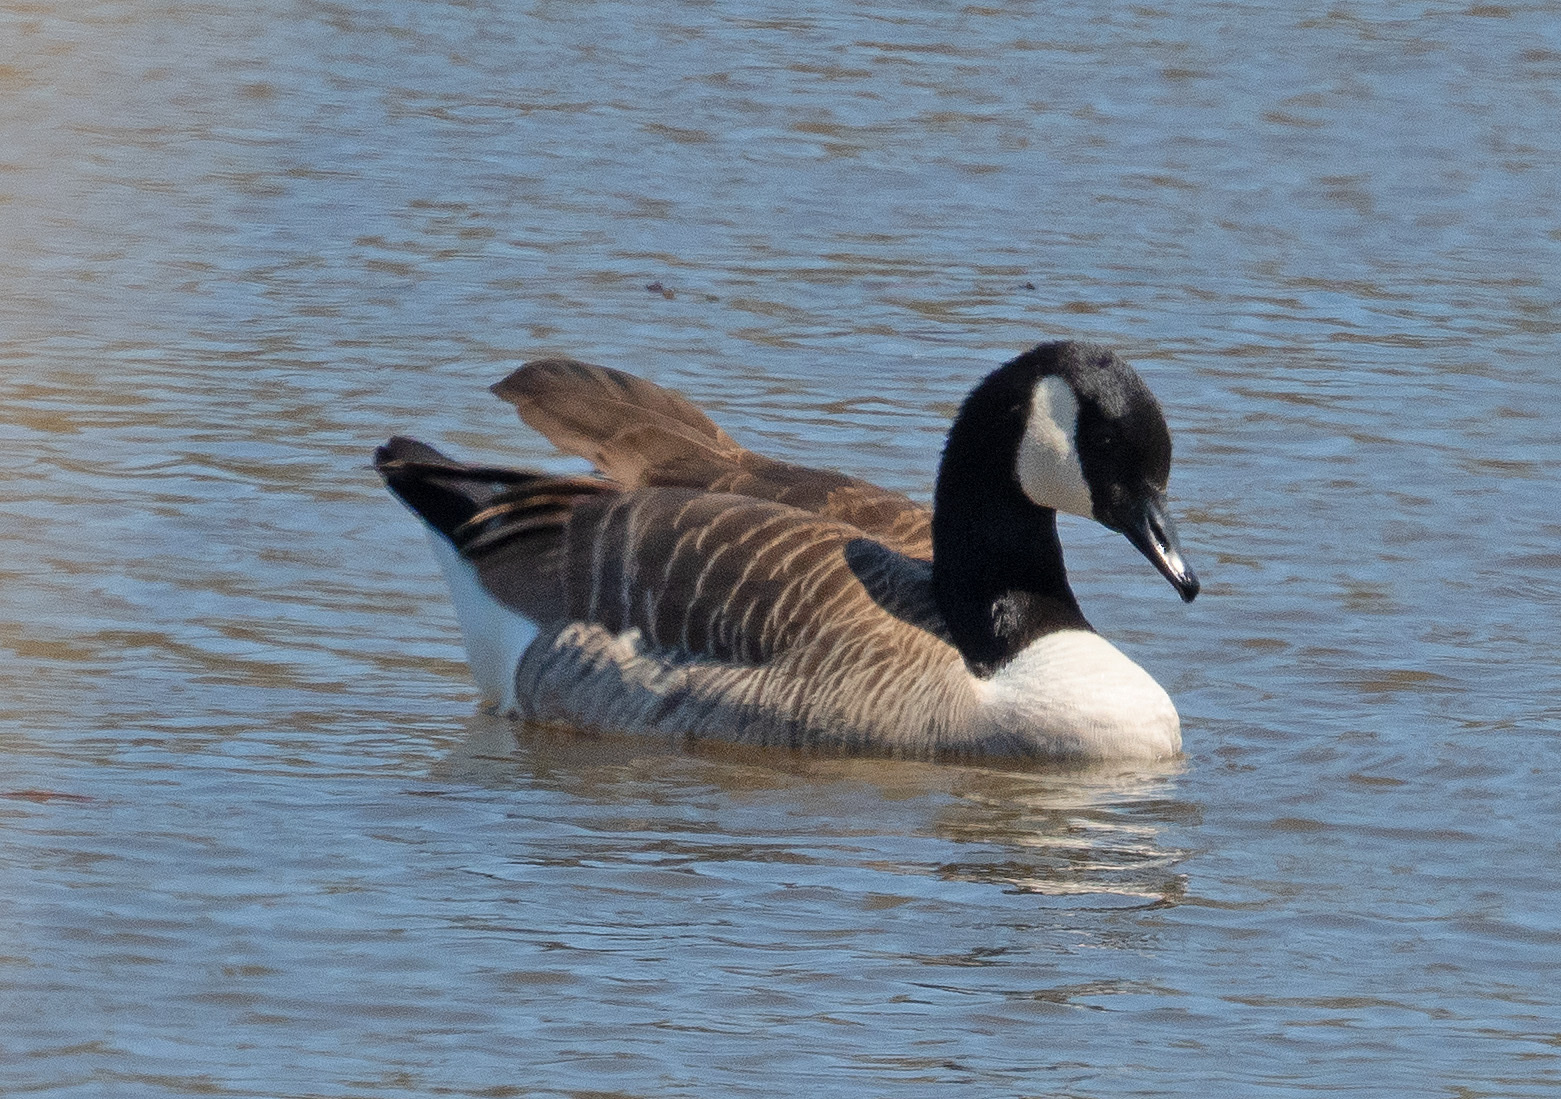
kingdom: Animalia
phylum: Chordata
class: Aves
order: Anseriformes
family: Anatidae
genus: Branta
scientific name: Branta canadensis
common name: Canada goose
